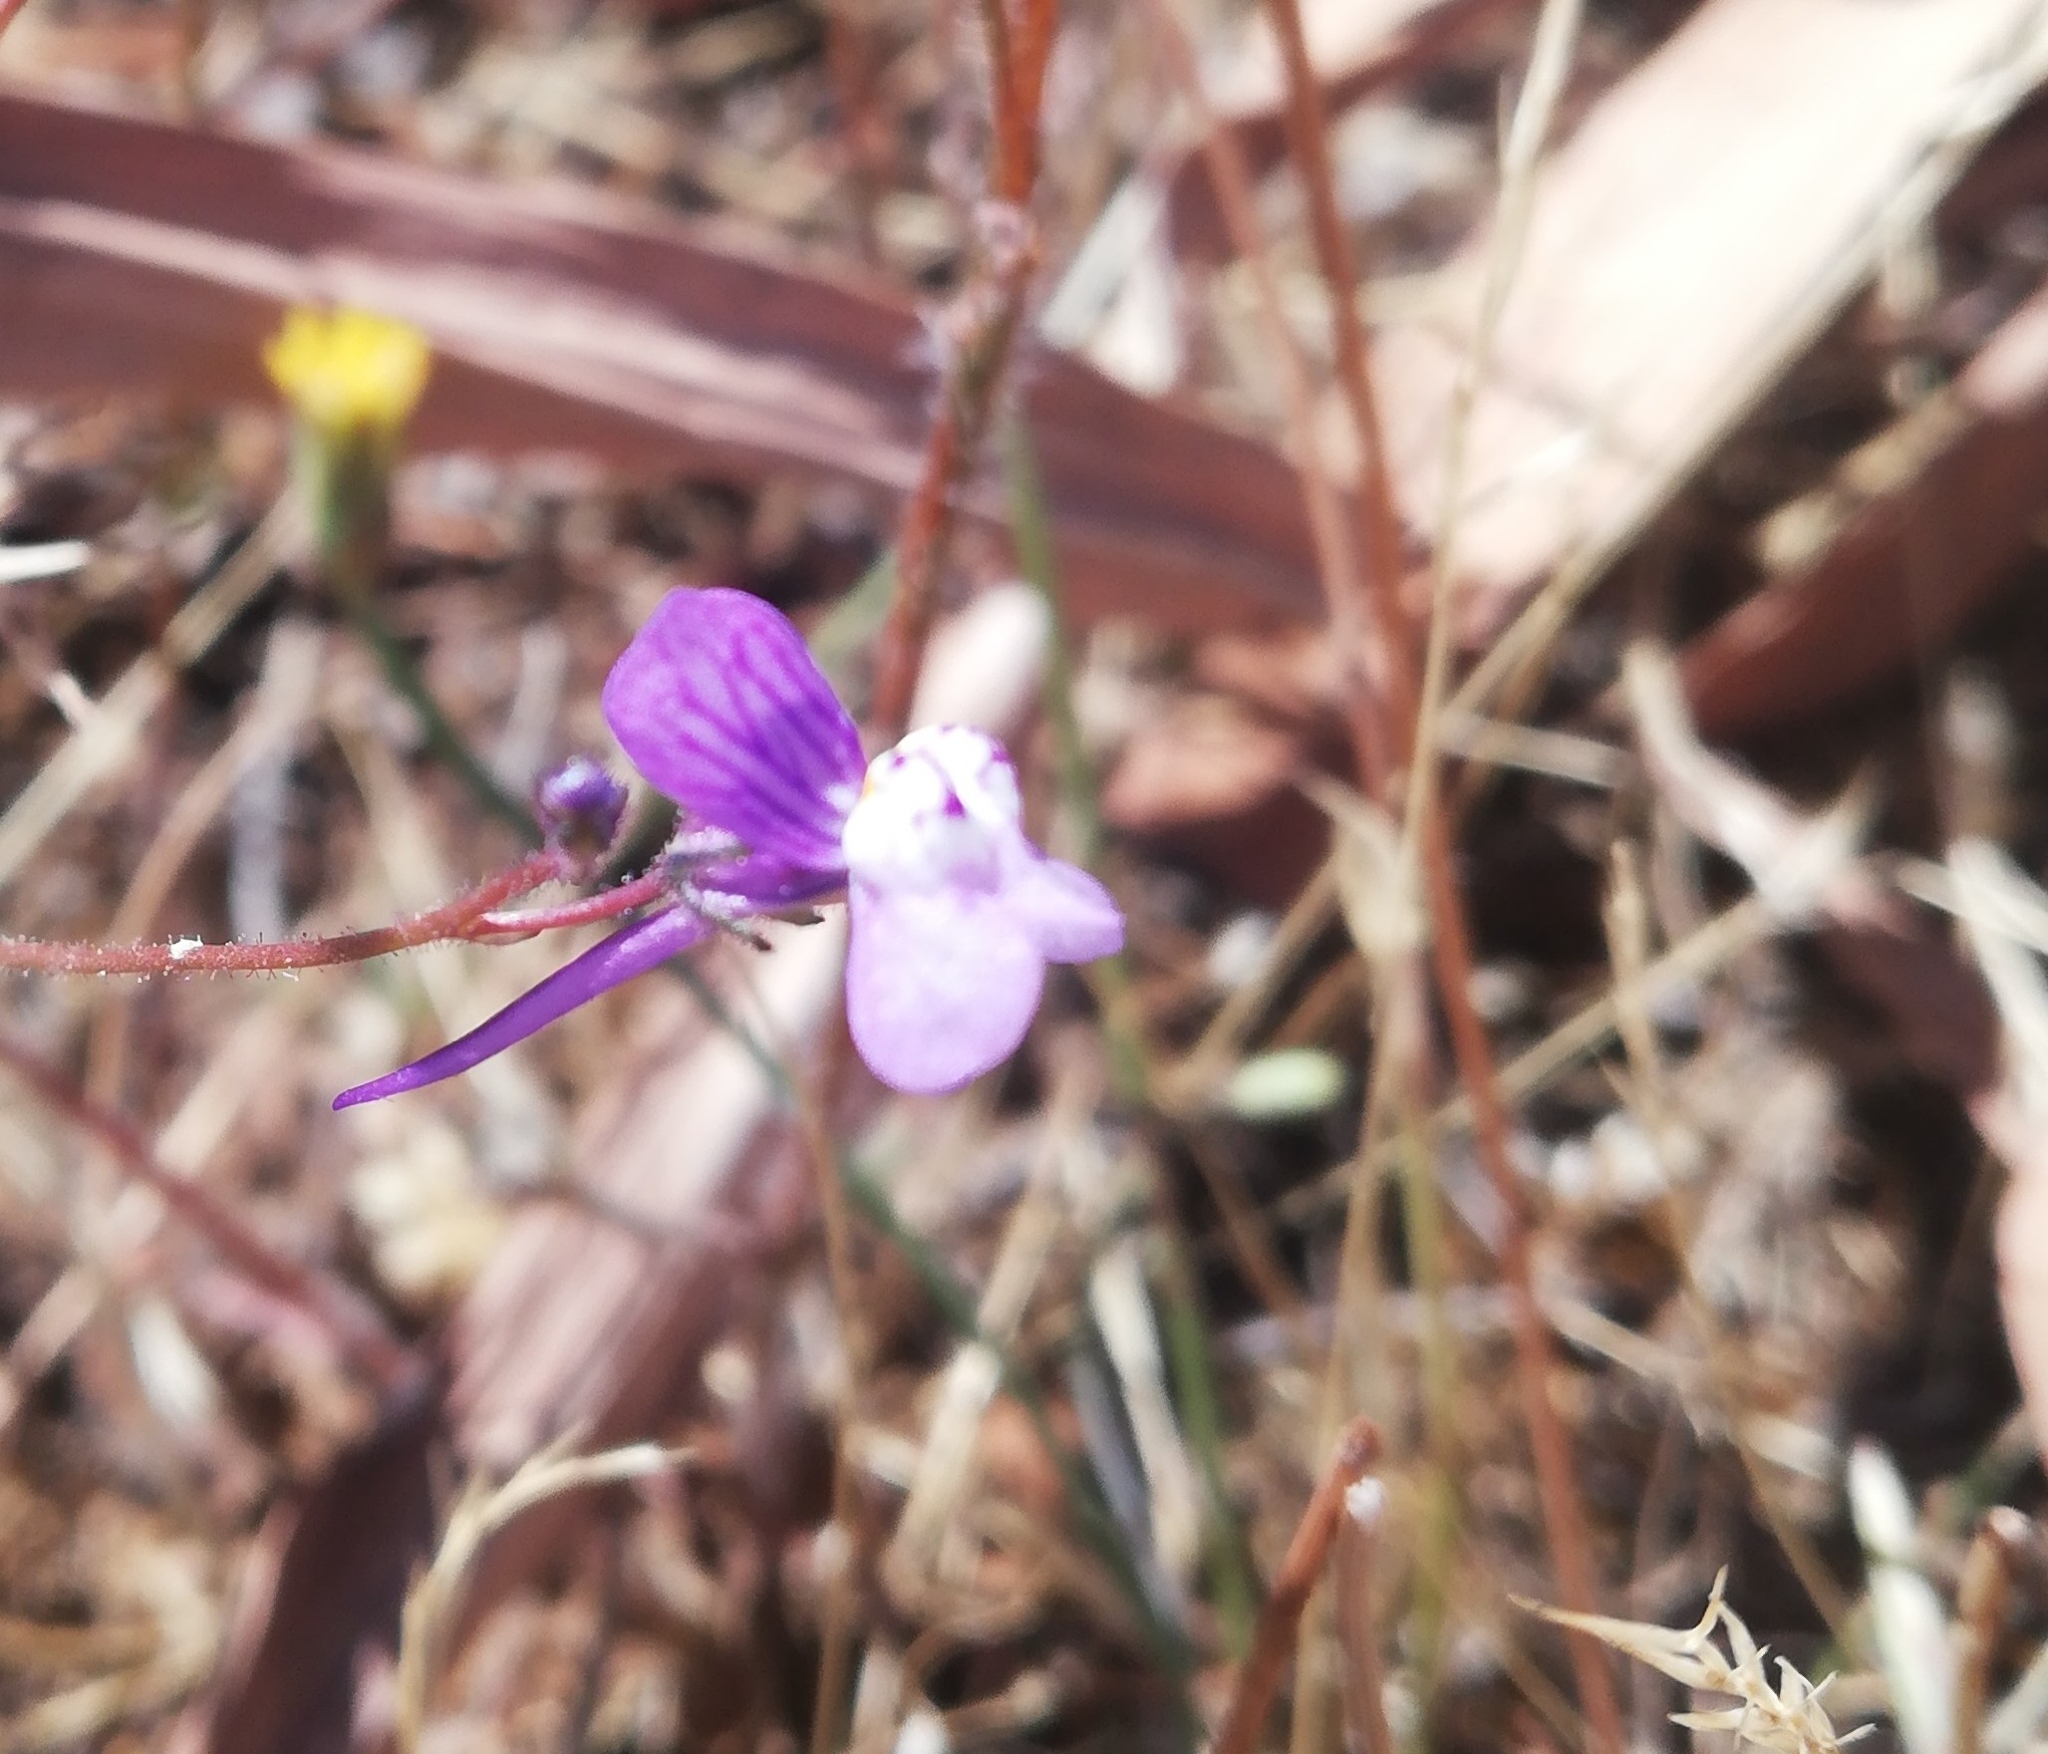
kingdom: Plantae
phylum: Tracheophyta
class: Magnoliopsida
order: Lamiales
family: Plantaginaceae
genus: Linaria
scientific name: Linaria incarnata
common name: Annual toadflax
